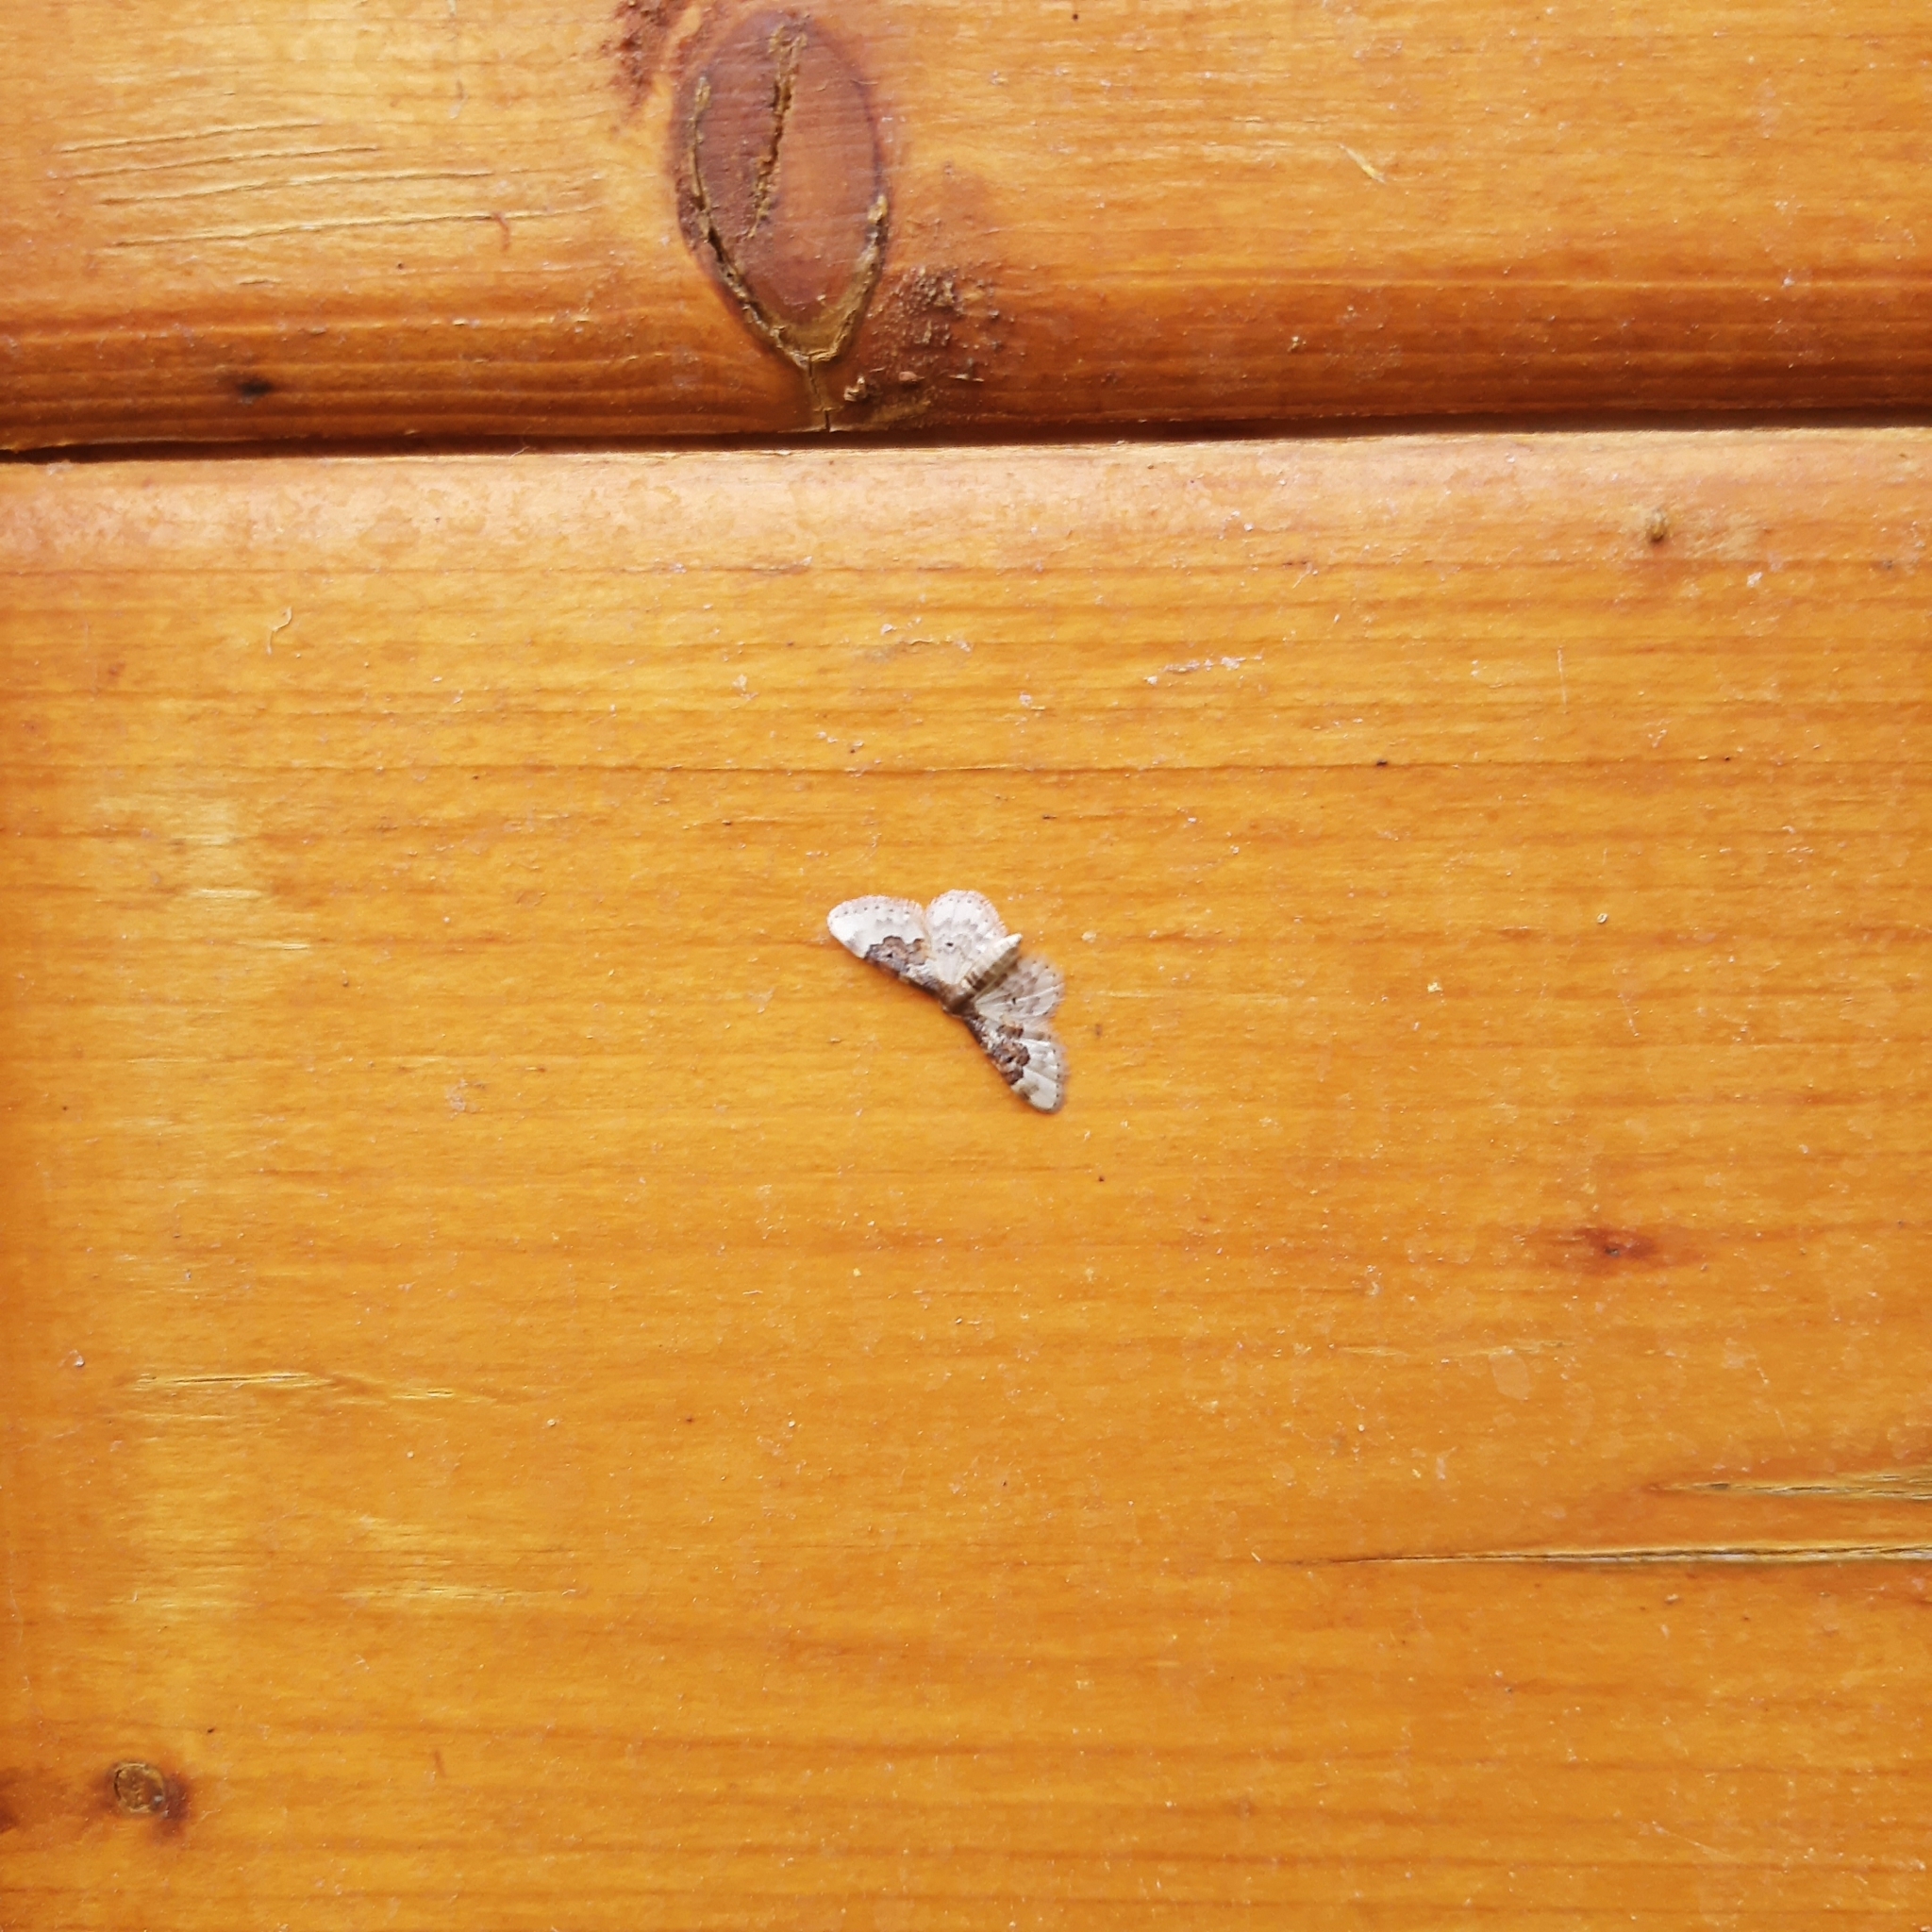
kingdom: Animalia
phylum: Arthropoda
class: Insecta
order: Lepidoptera
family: Geometridae
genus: Idaea
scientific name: Idaea rusticata
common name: Least carpet
